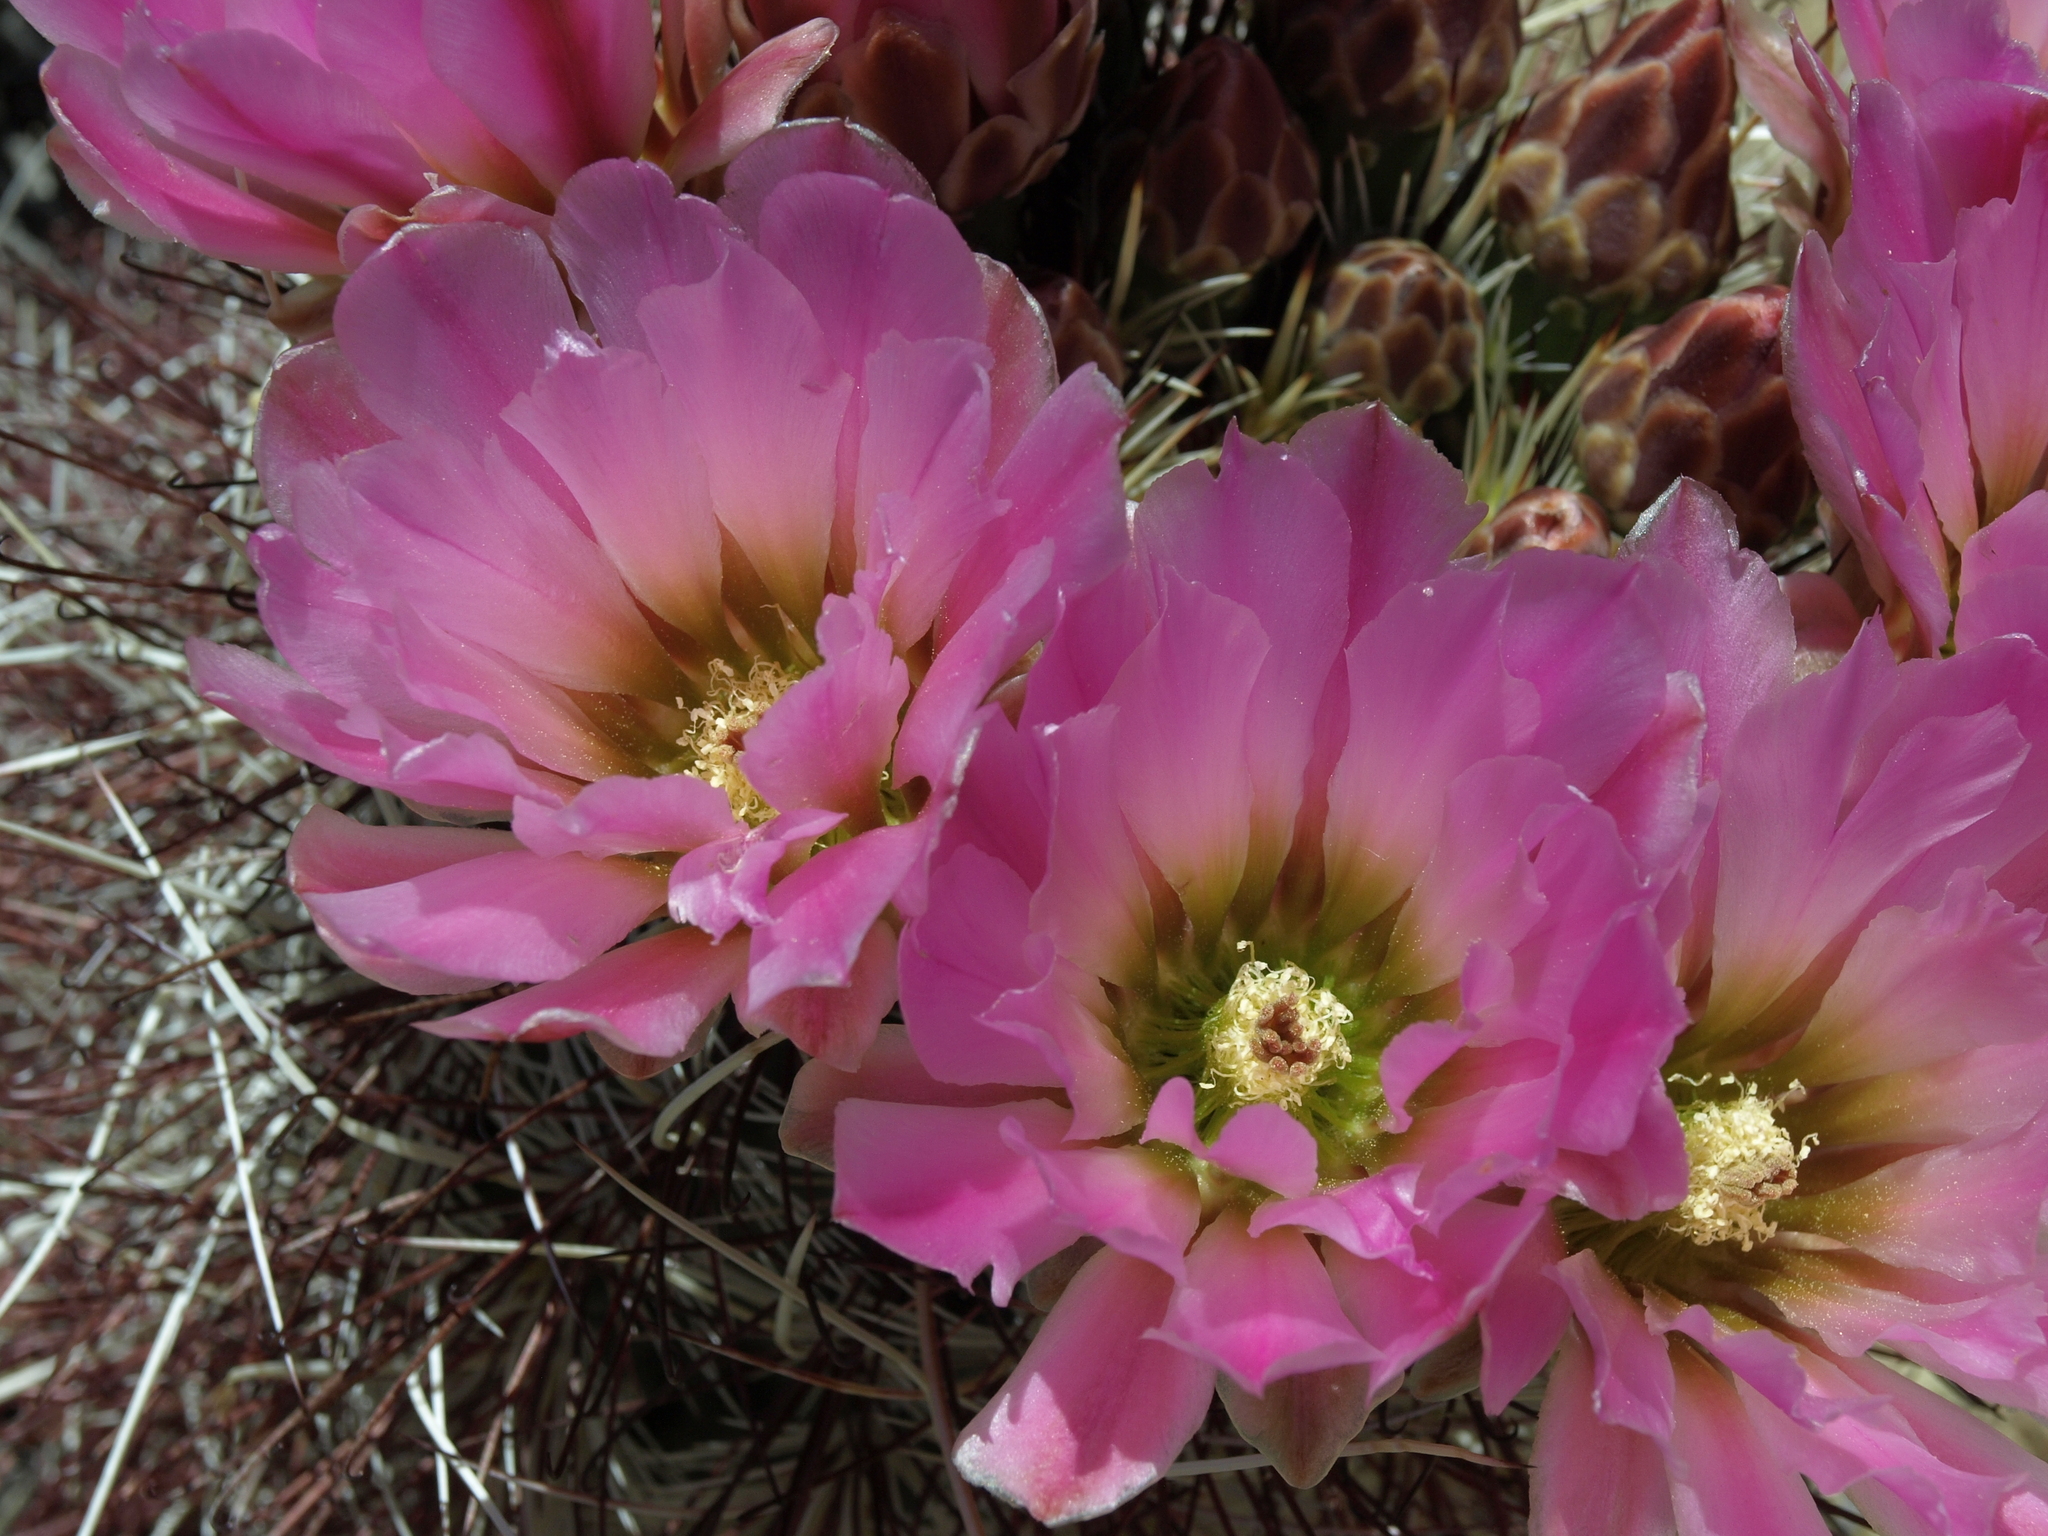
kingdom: Plantae
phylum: Tracheophyta
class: Magnoliopsida
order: Caryophyllales
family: Cactaceae
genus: Sclerocactus
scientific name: Sclerocactus polyancistrus
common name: Mohave fishhook cactus
